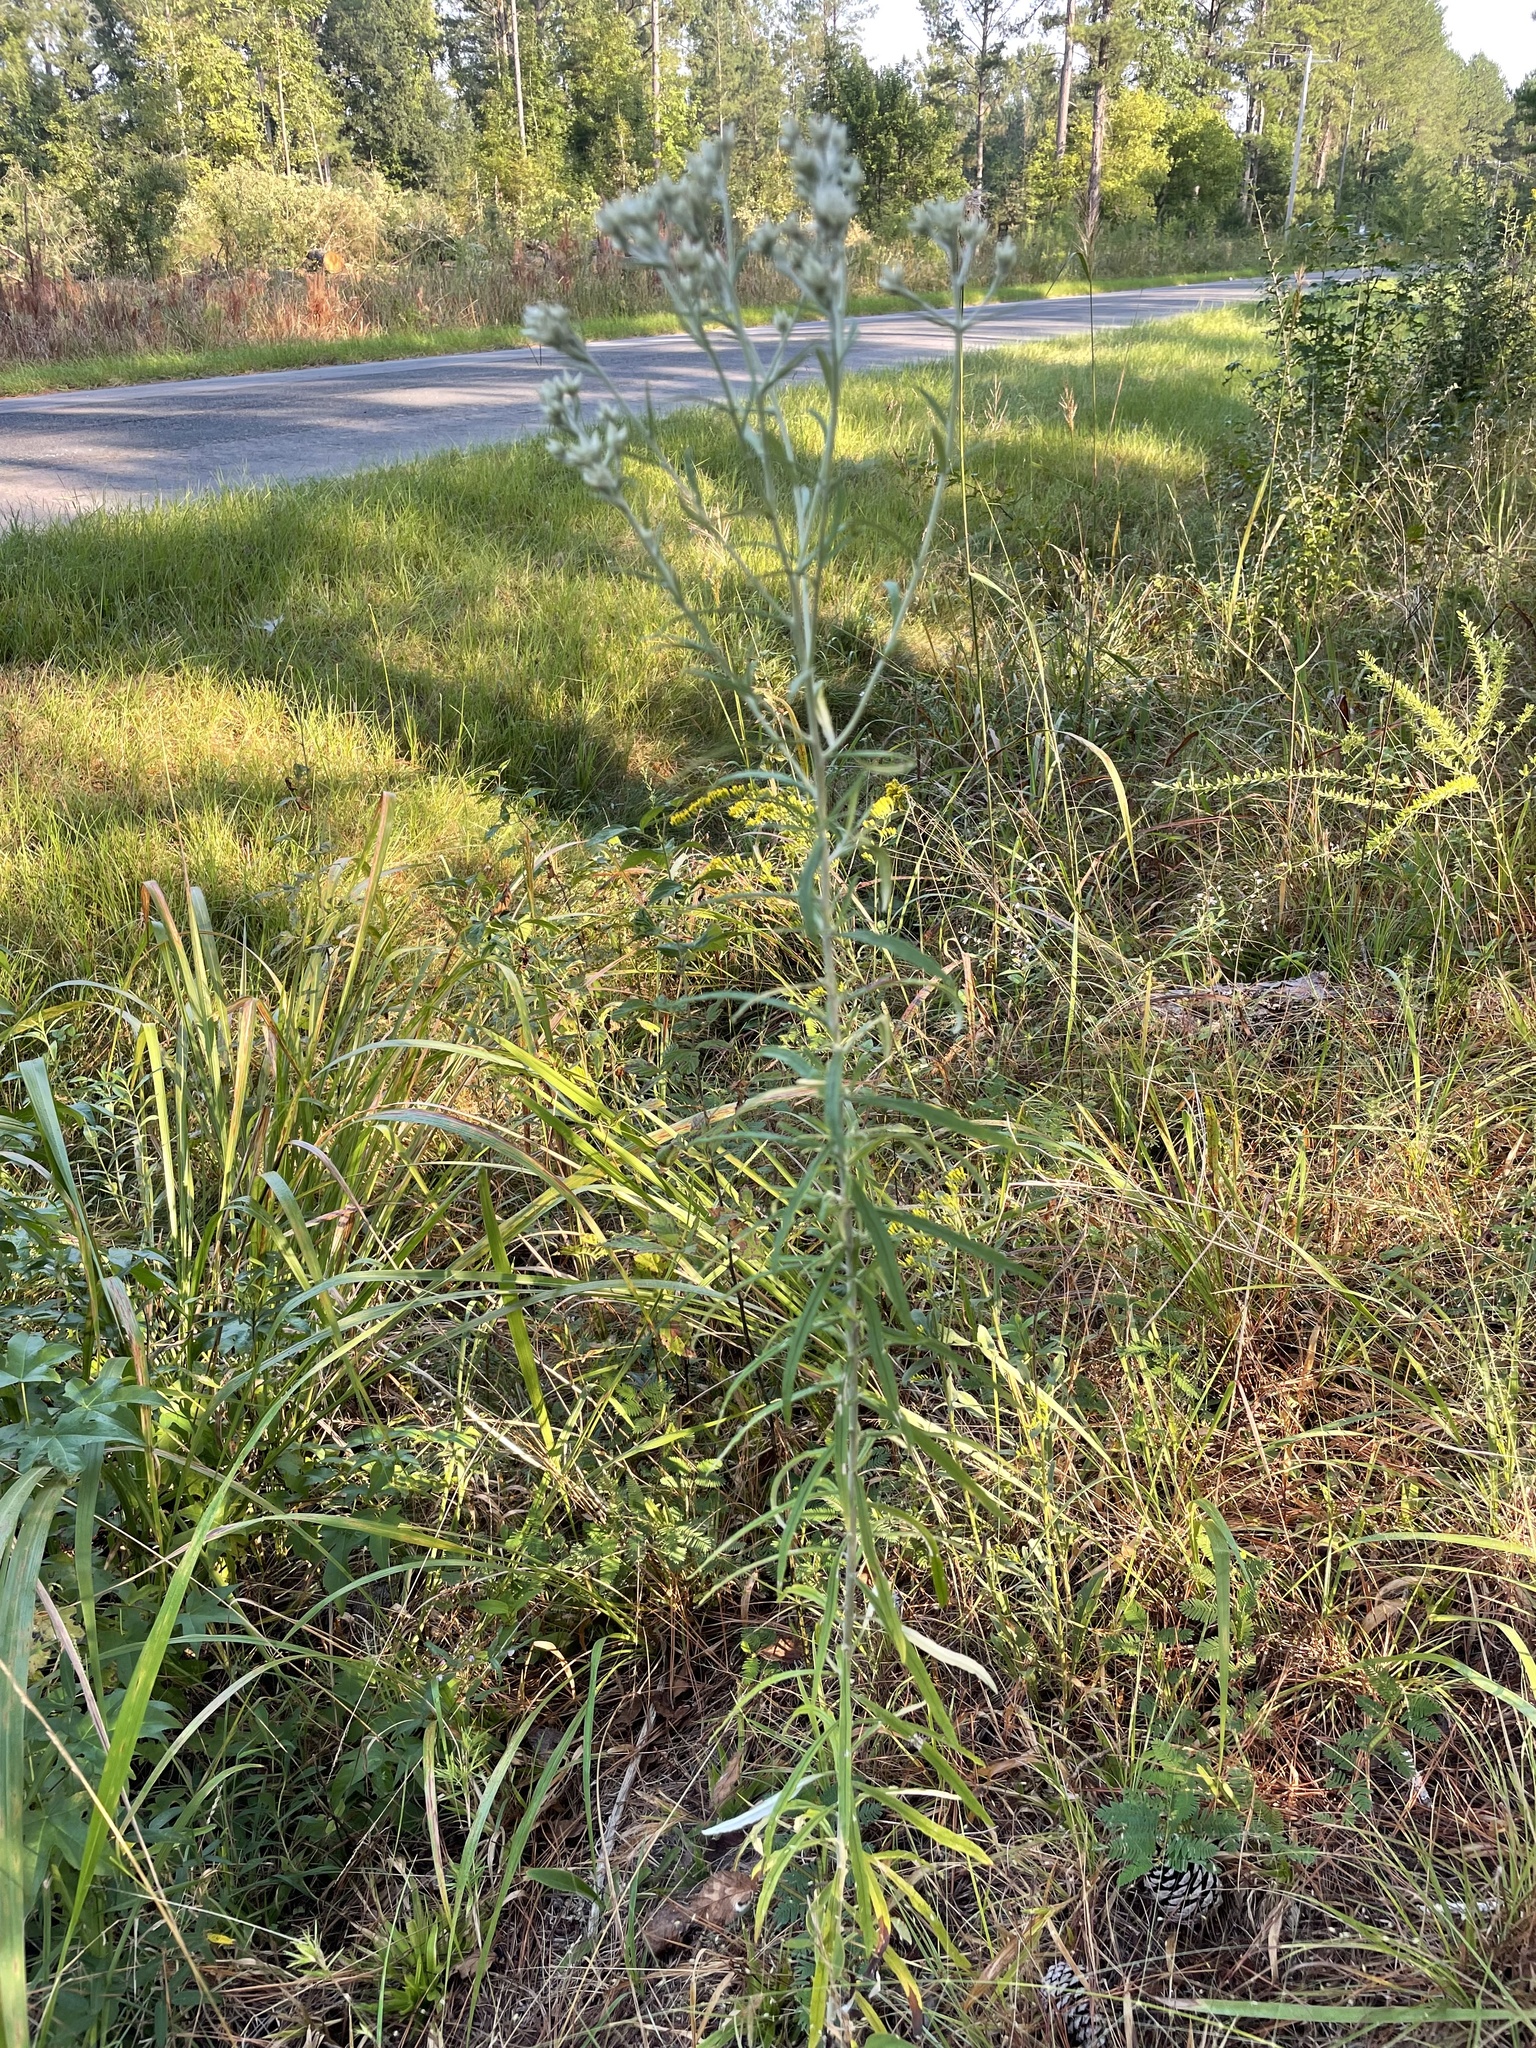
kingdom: Plantae
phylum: Tracheophyta
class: Magnoliopsida
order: Asterales
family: Asteraceae
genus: Pseudognaphalium
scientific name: Pseudognaphalium obtusifolium
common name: Eastern rabbit-tobacco
